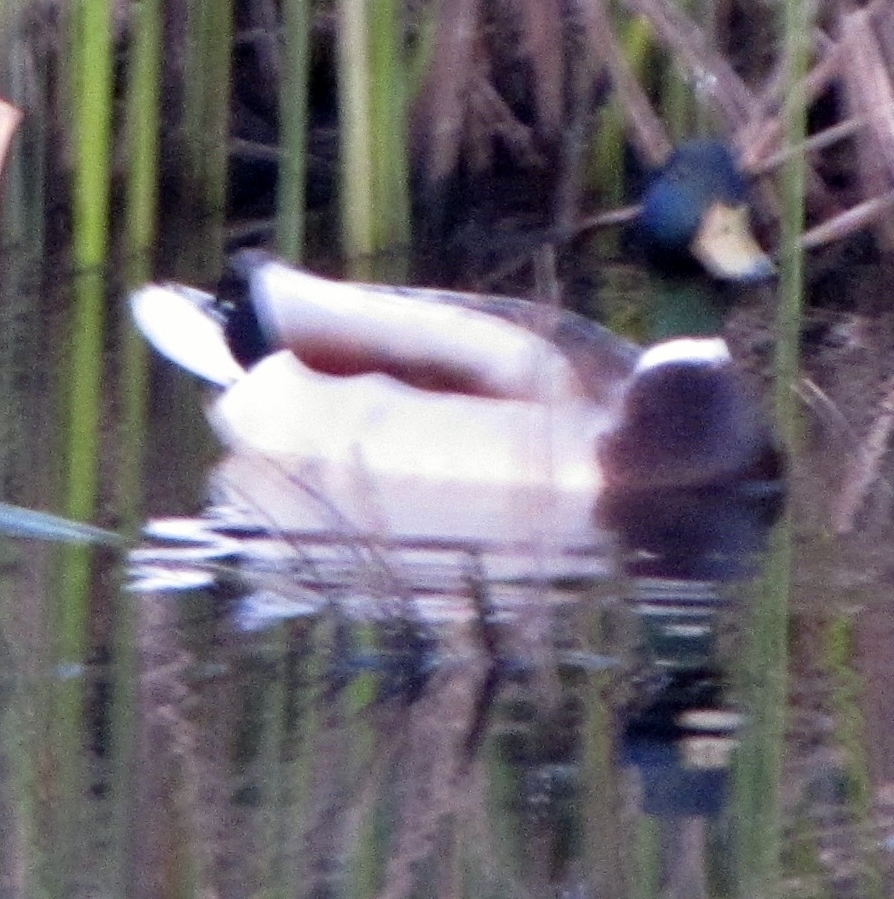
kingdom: Animalia
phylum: Chordata
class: Aves
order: Anseriformes
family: Anatidae
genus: Anas
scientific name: Anas platyrhynchos
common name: Mallard
